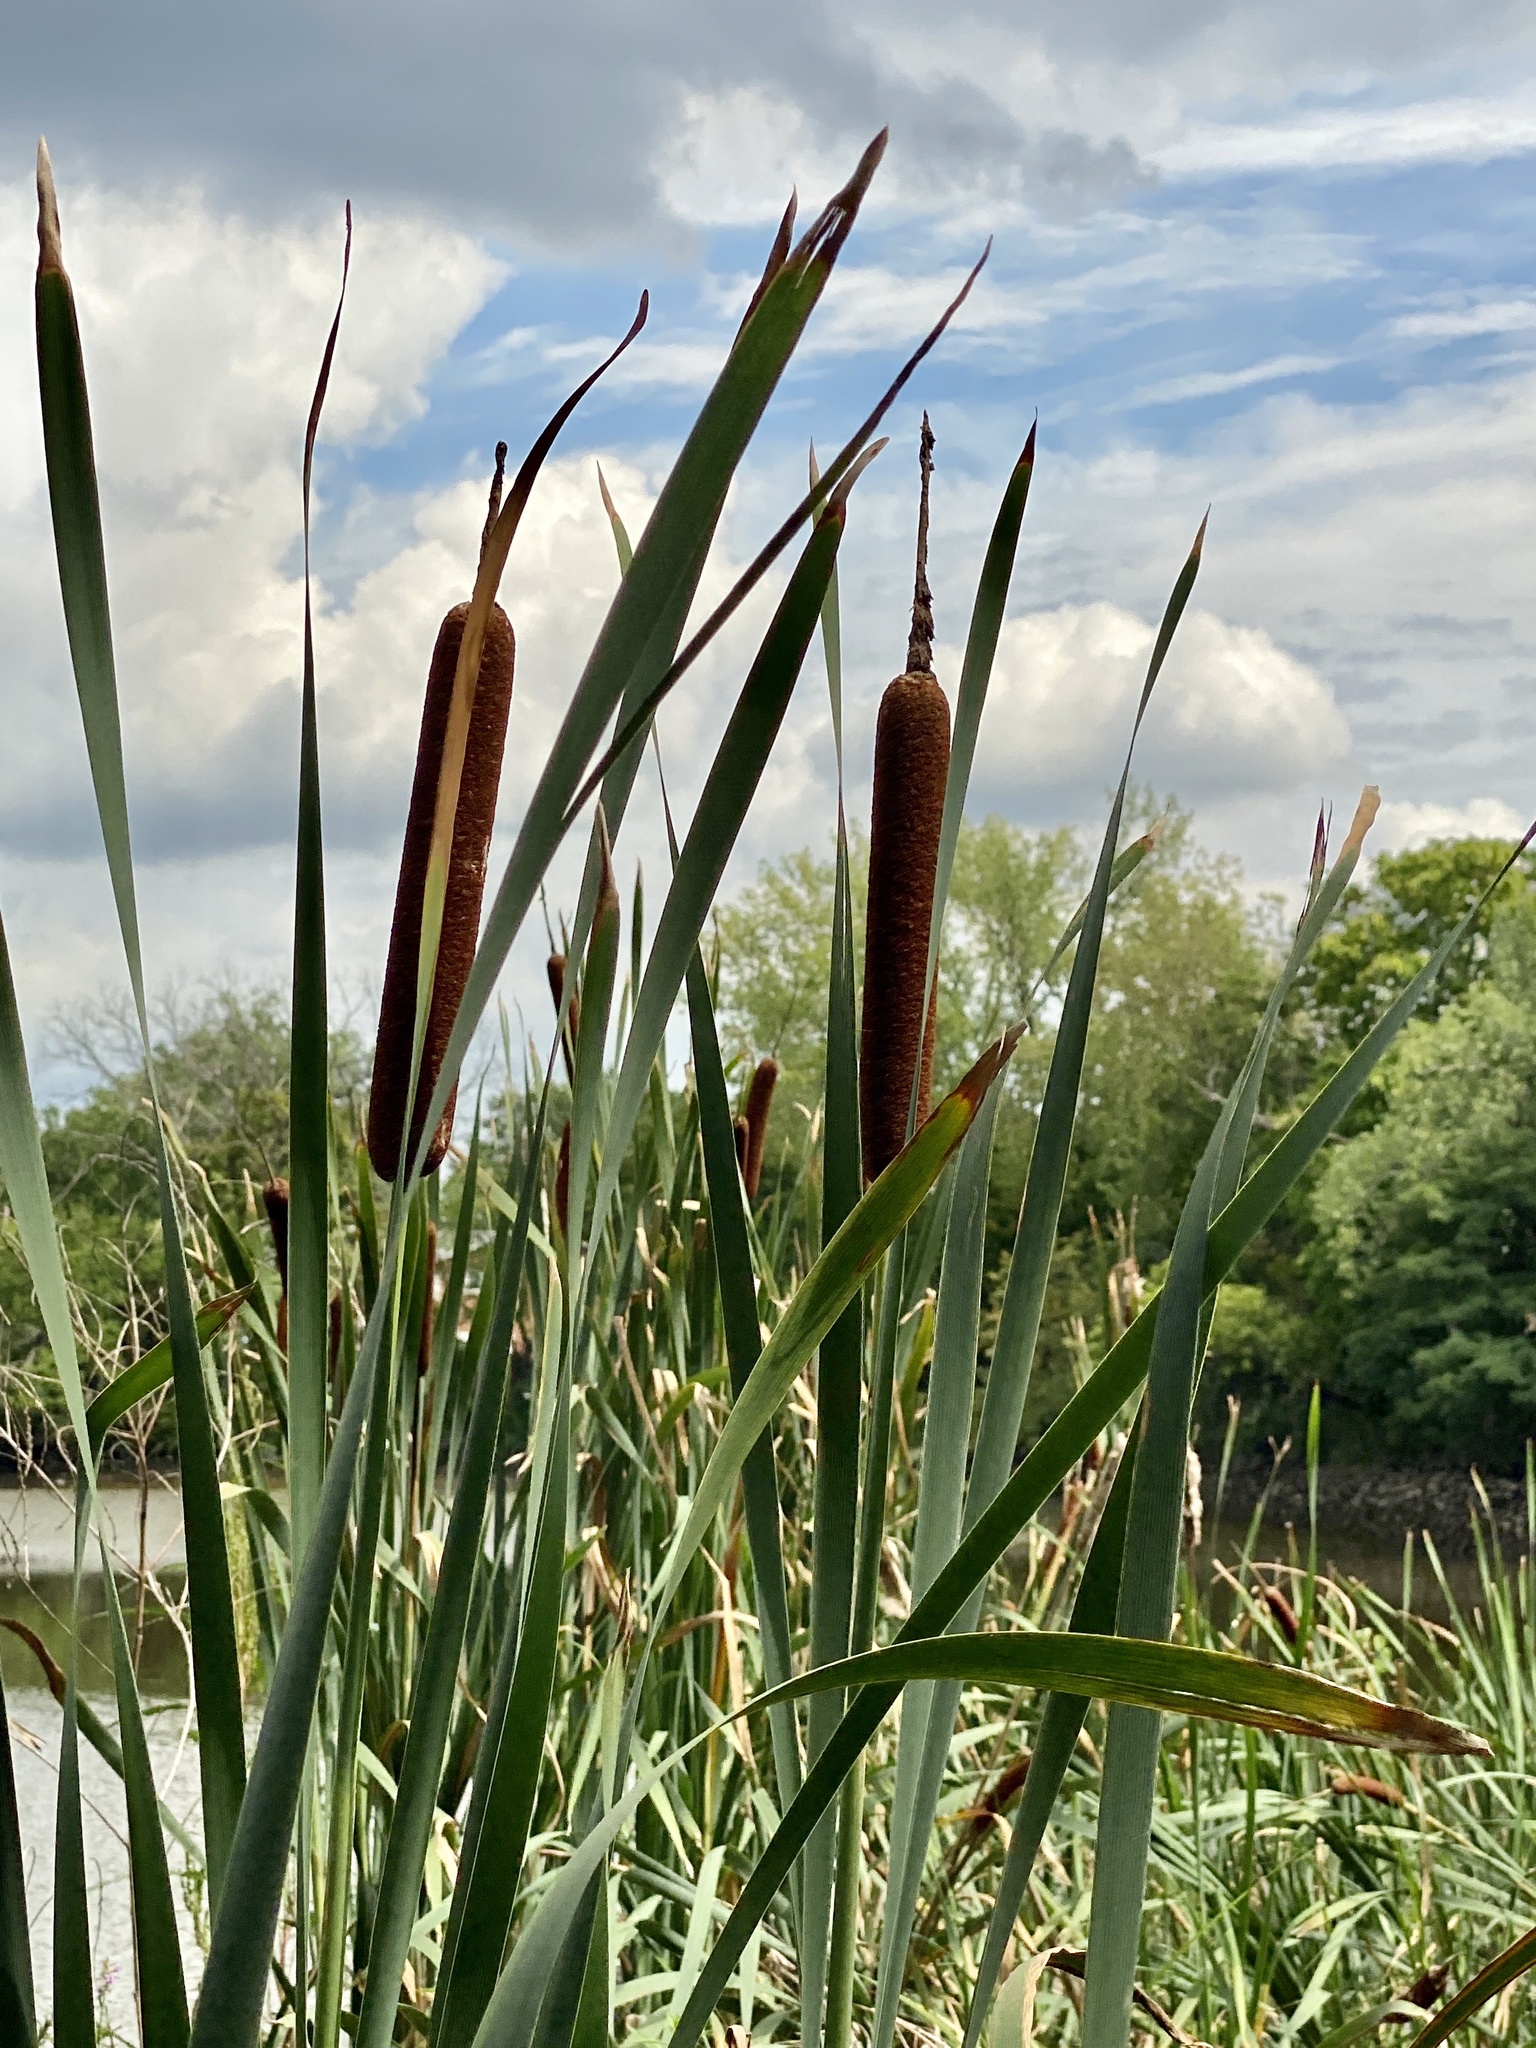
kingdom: Plantae
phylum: Tracheophyta
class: Liliopsida
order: Poales
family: Typhaceae
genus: Typha
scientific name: Typha latifolia
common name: Broadleaf cattail
